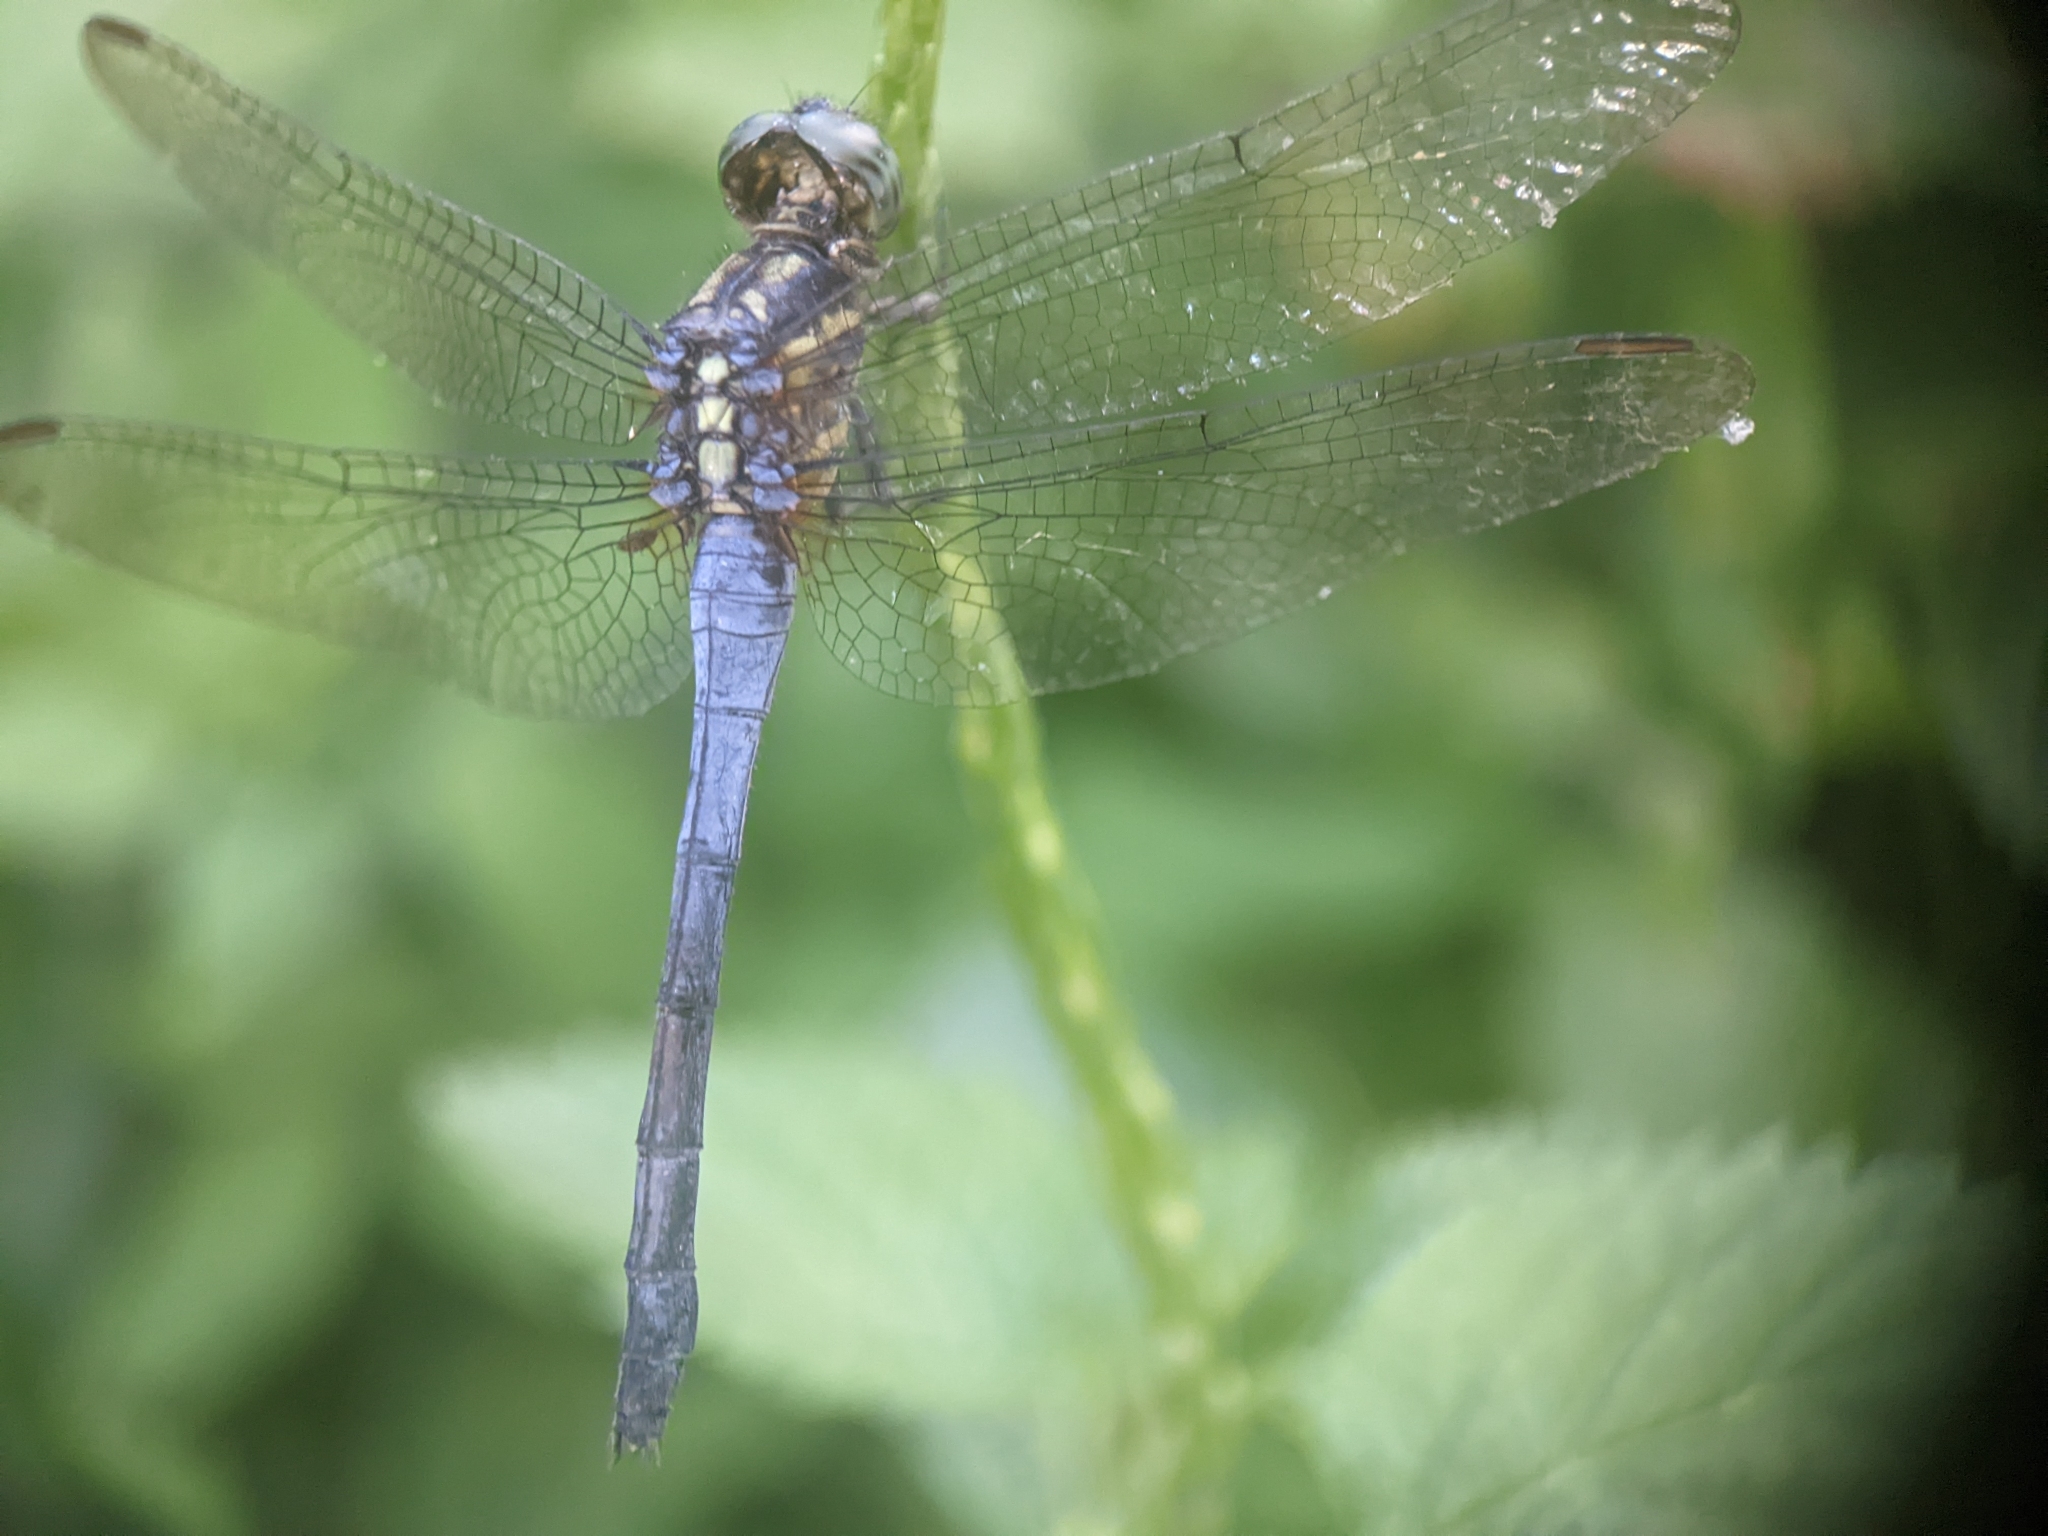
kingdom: Animalia
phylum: Arthropoda
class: Insecta
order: Odonata
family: Libellulidae
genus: Orthetrum
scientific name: Orthetrum glaucum
